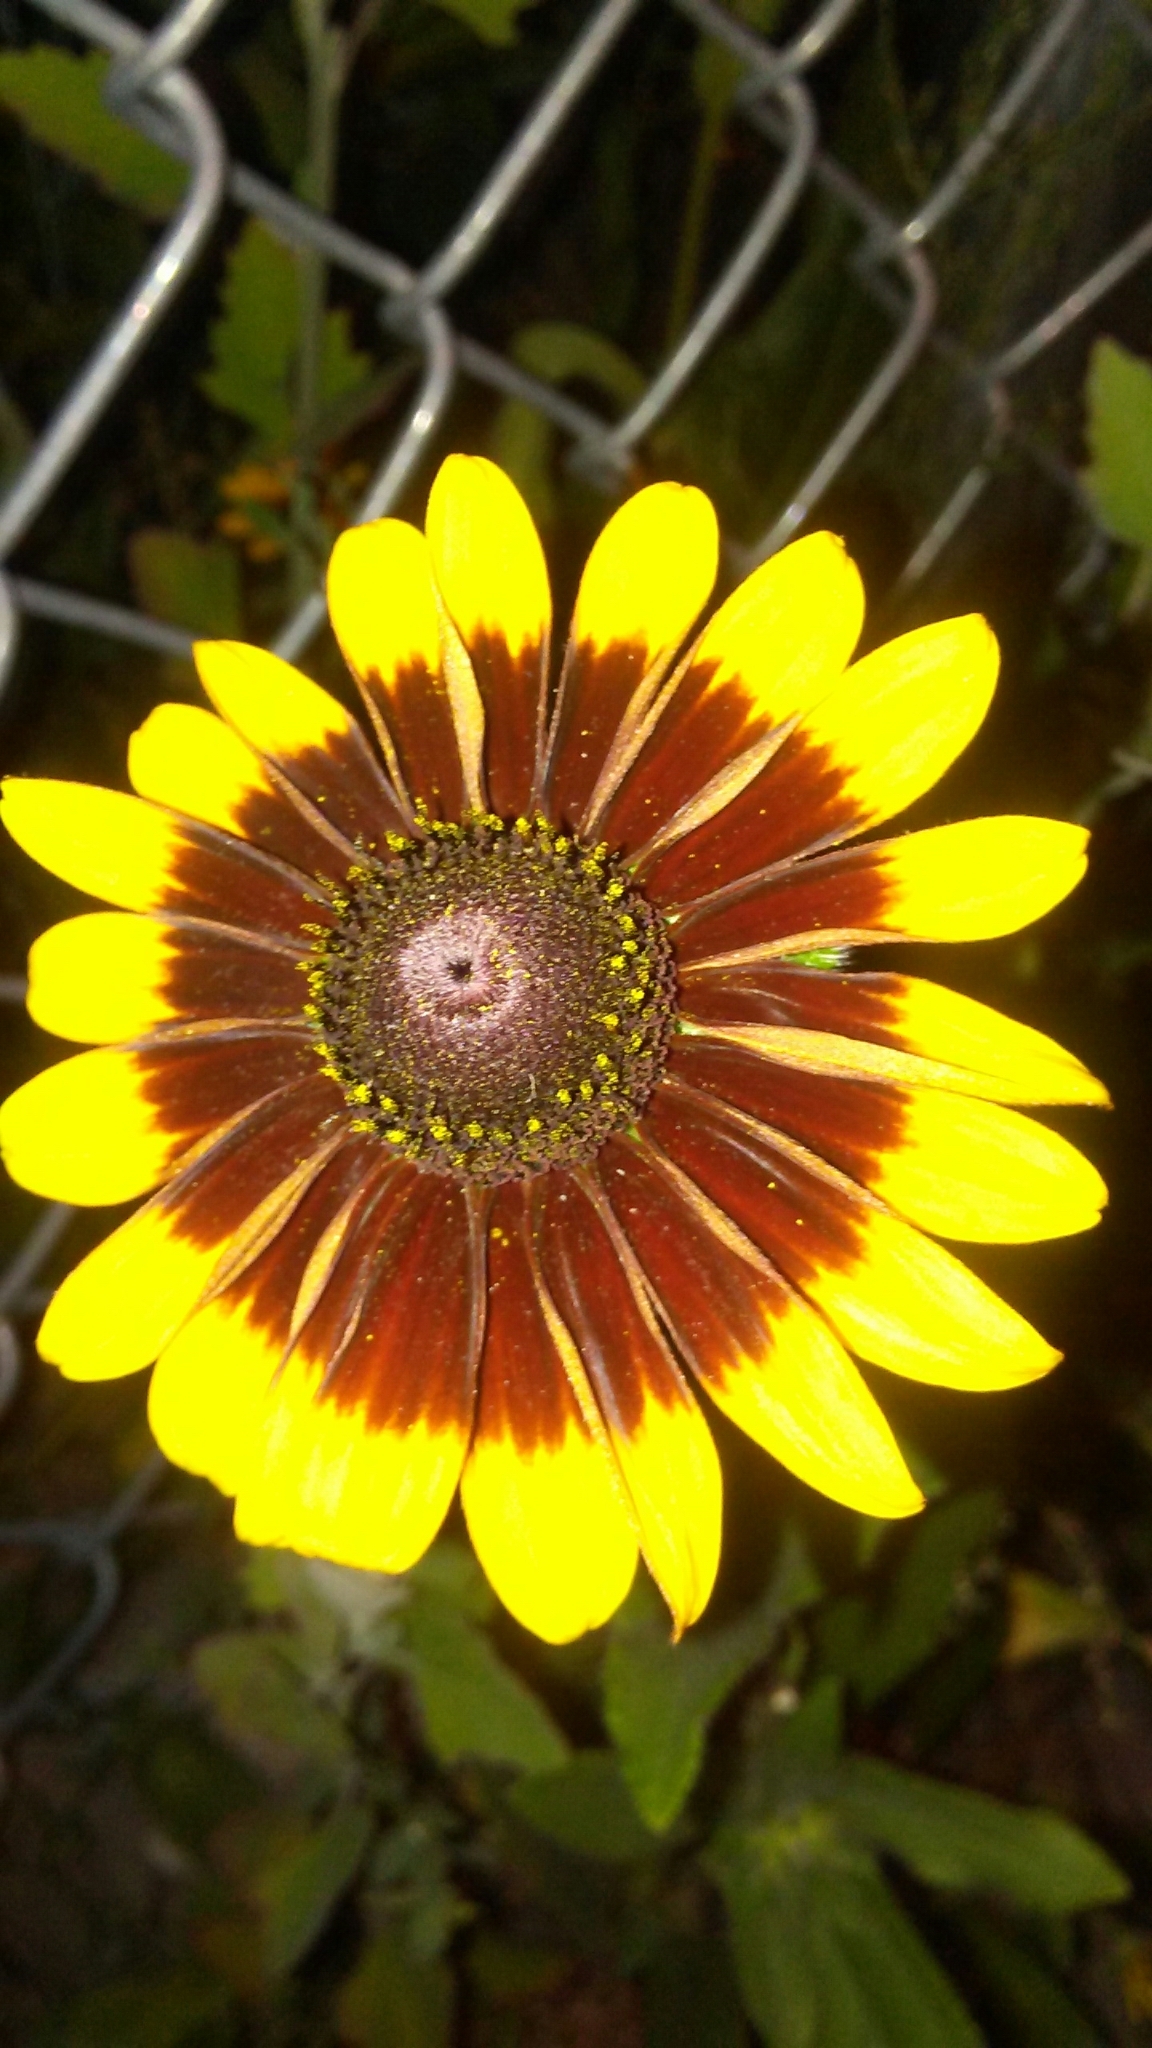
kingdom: Plantae
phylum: Tracheophyta
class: Magnoliopsida
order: Asterales
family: Asteraceae
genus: Rudbeckia
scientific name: Rudbeckia hirta
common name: Black-eyed-susan
